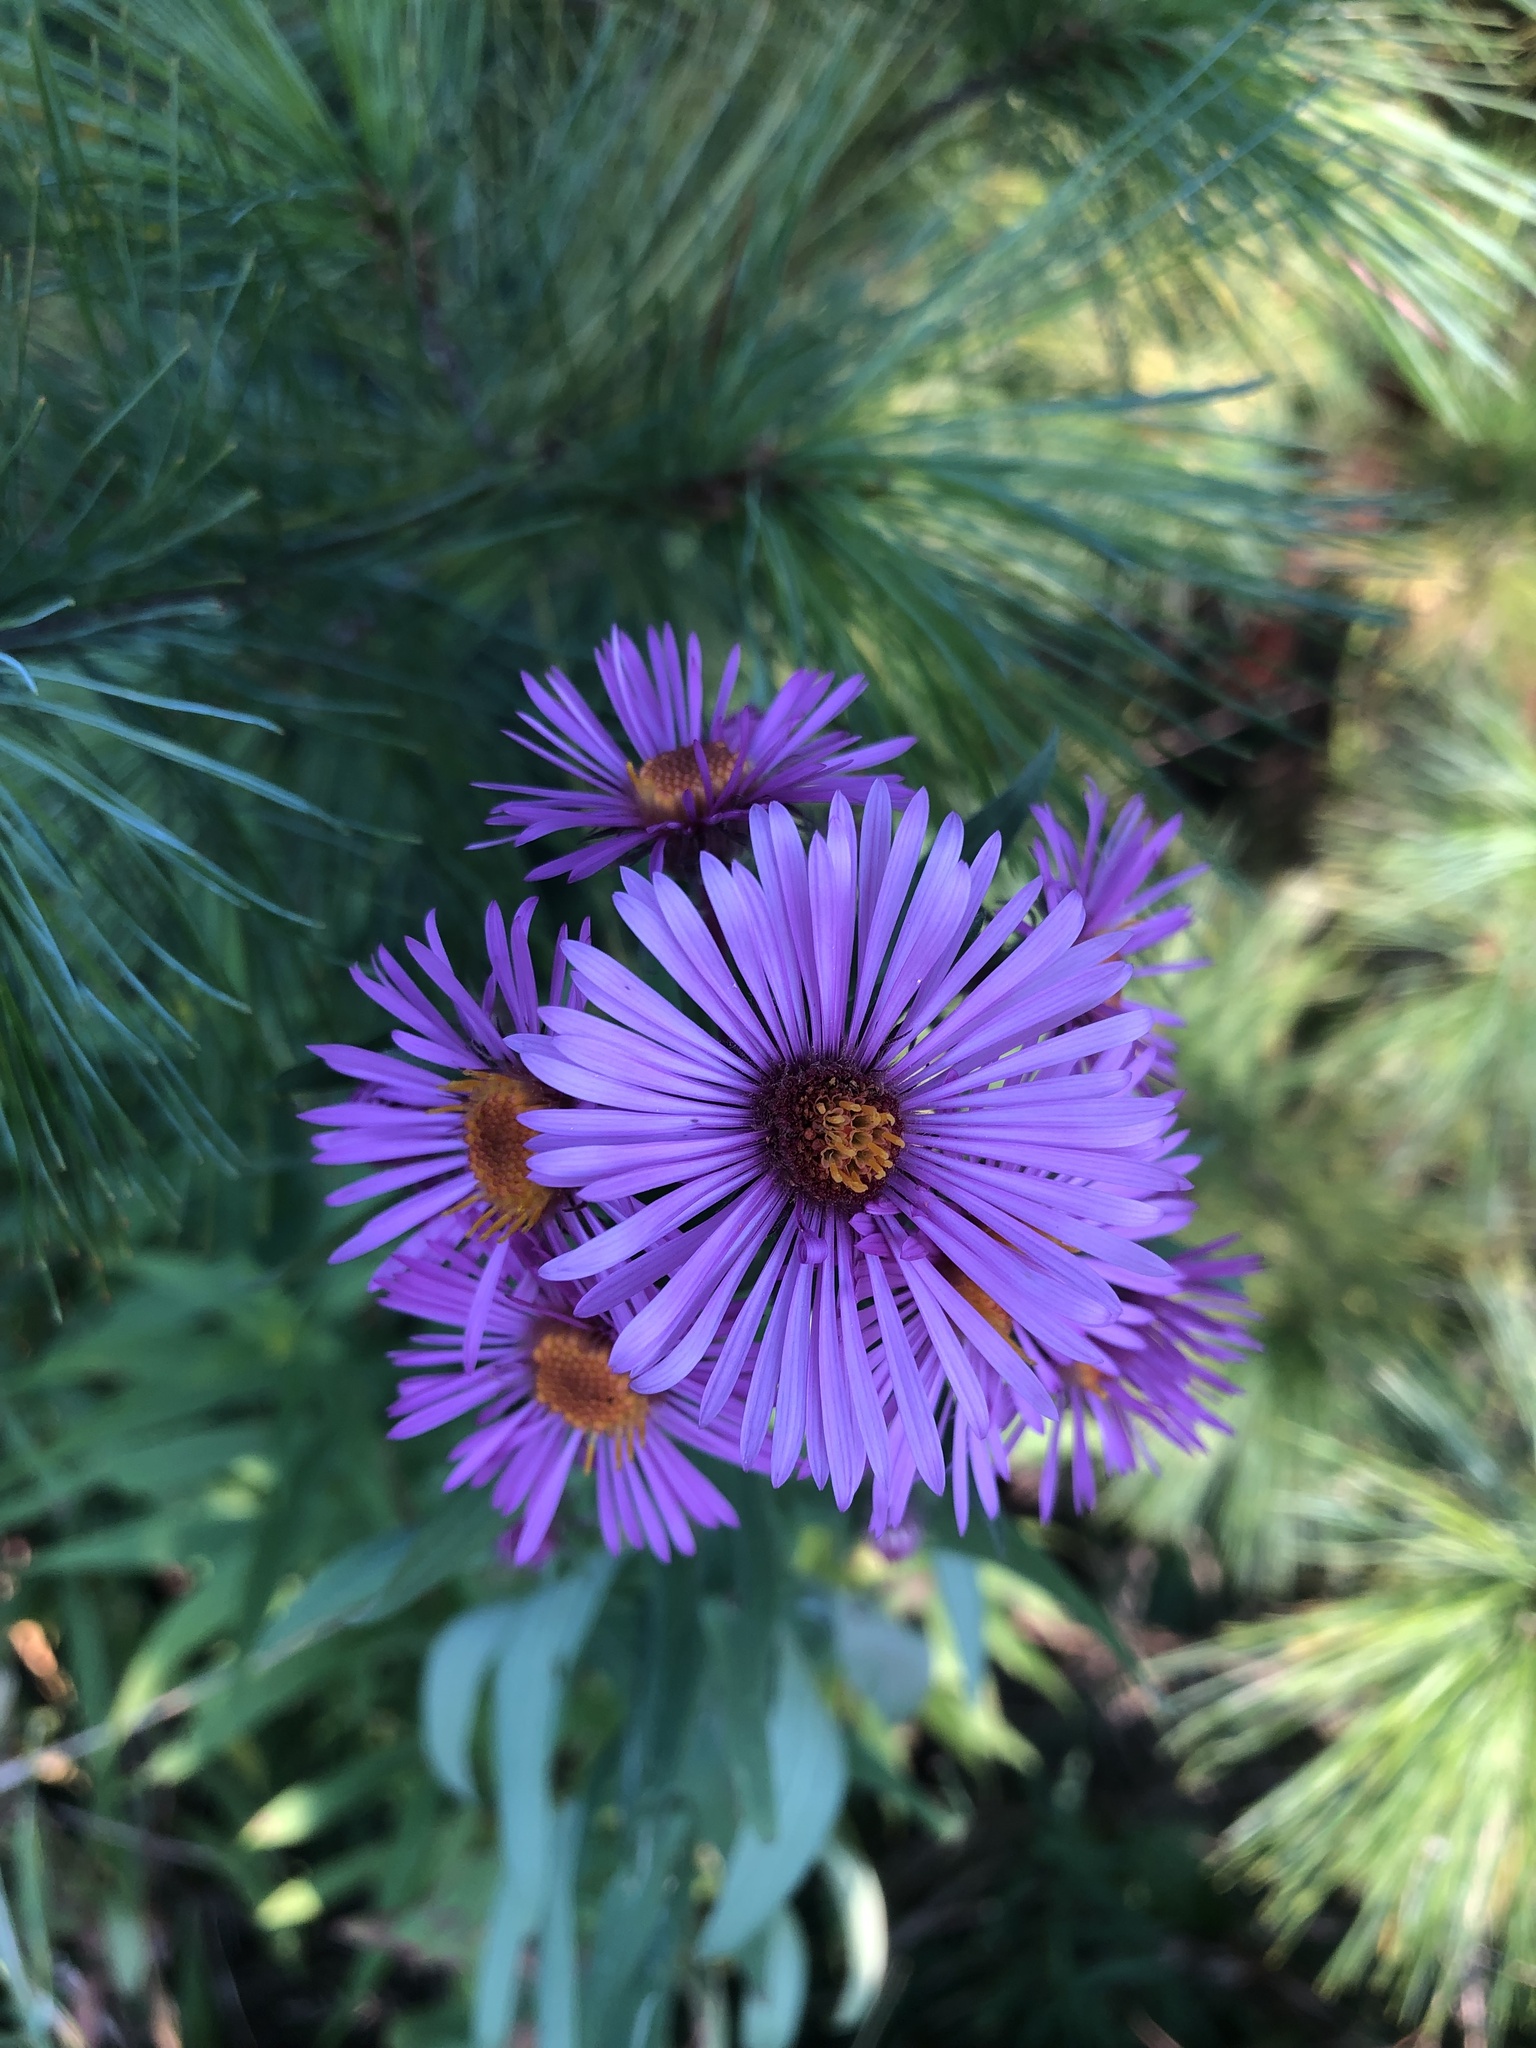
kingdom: Plantae
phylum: Tracheophyta
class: Magnoliopsida
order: Asterales
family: Asteraceae
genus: Symphyotrichum
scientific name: Symphyotrichum novae-angliae
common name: Michaelmas daisy
